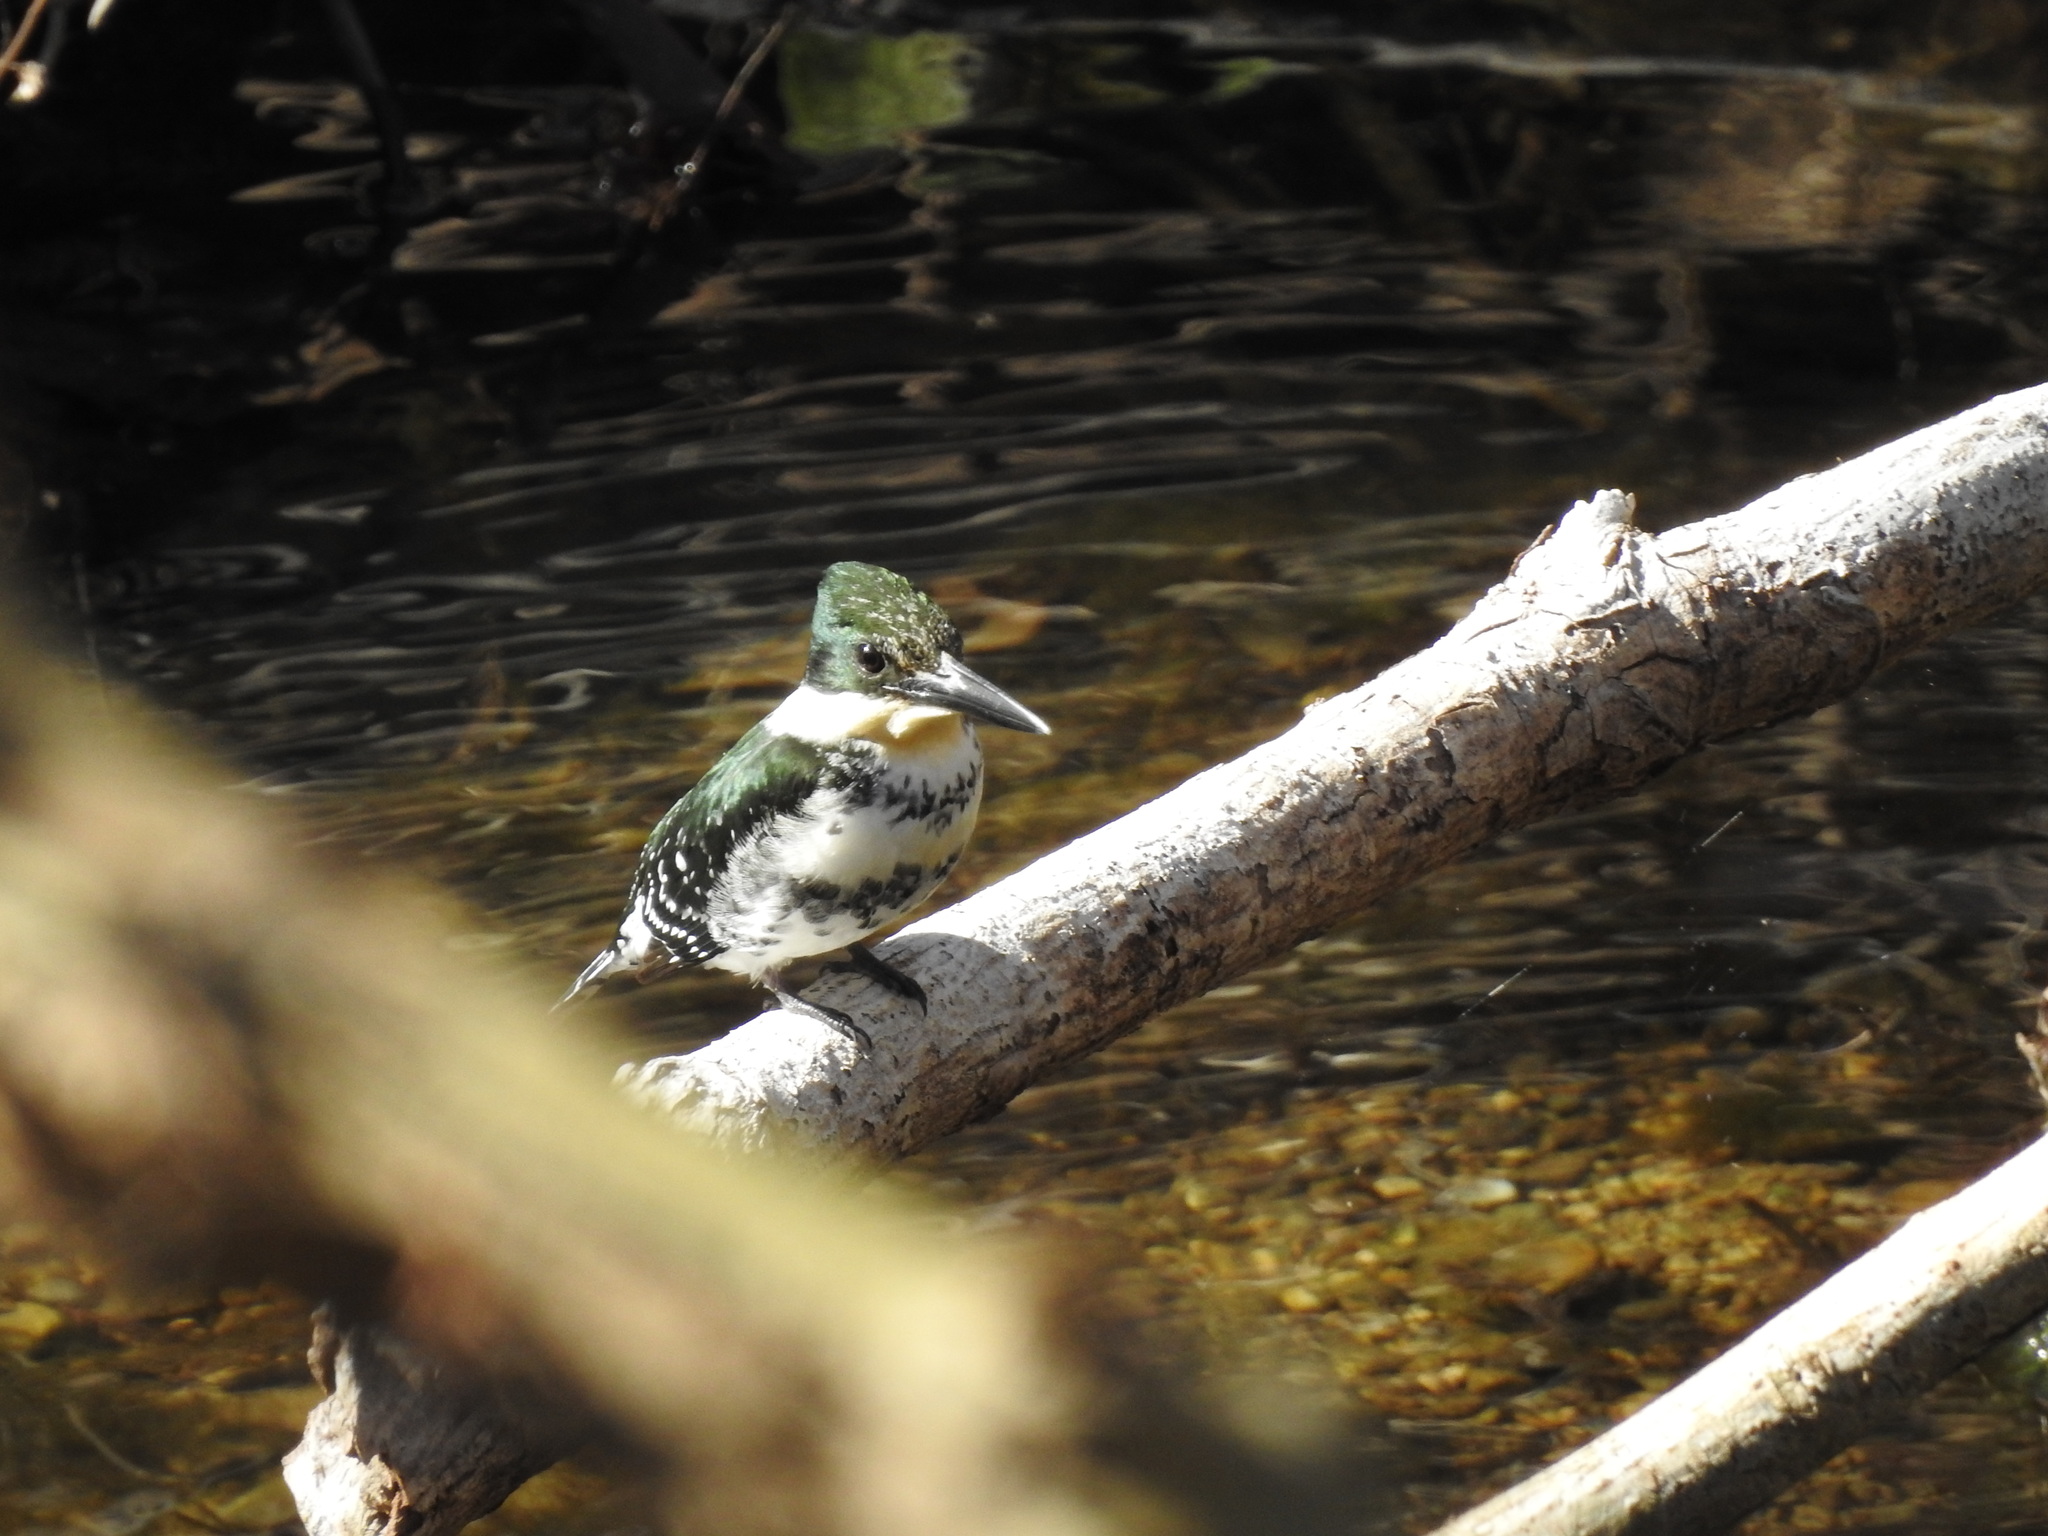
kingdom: Animalia
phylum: Chordata
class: Aves
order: Coraciiformes
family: Alcedinidae
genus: Chloroceryle
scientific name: Chloroceryle americana
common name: Green kingfisher
